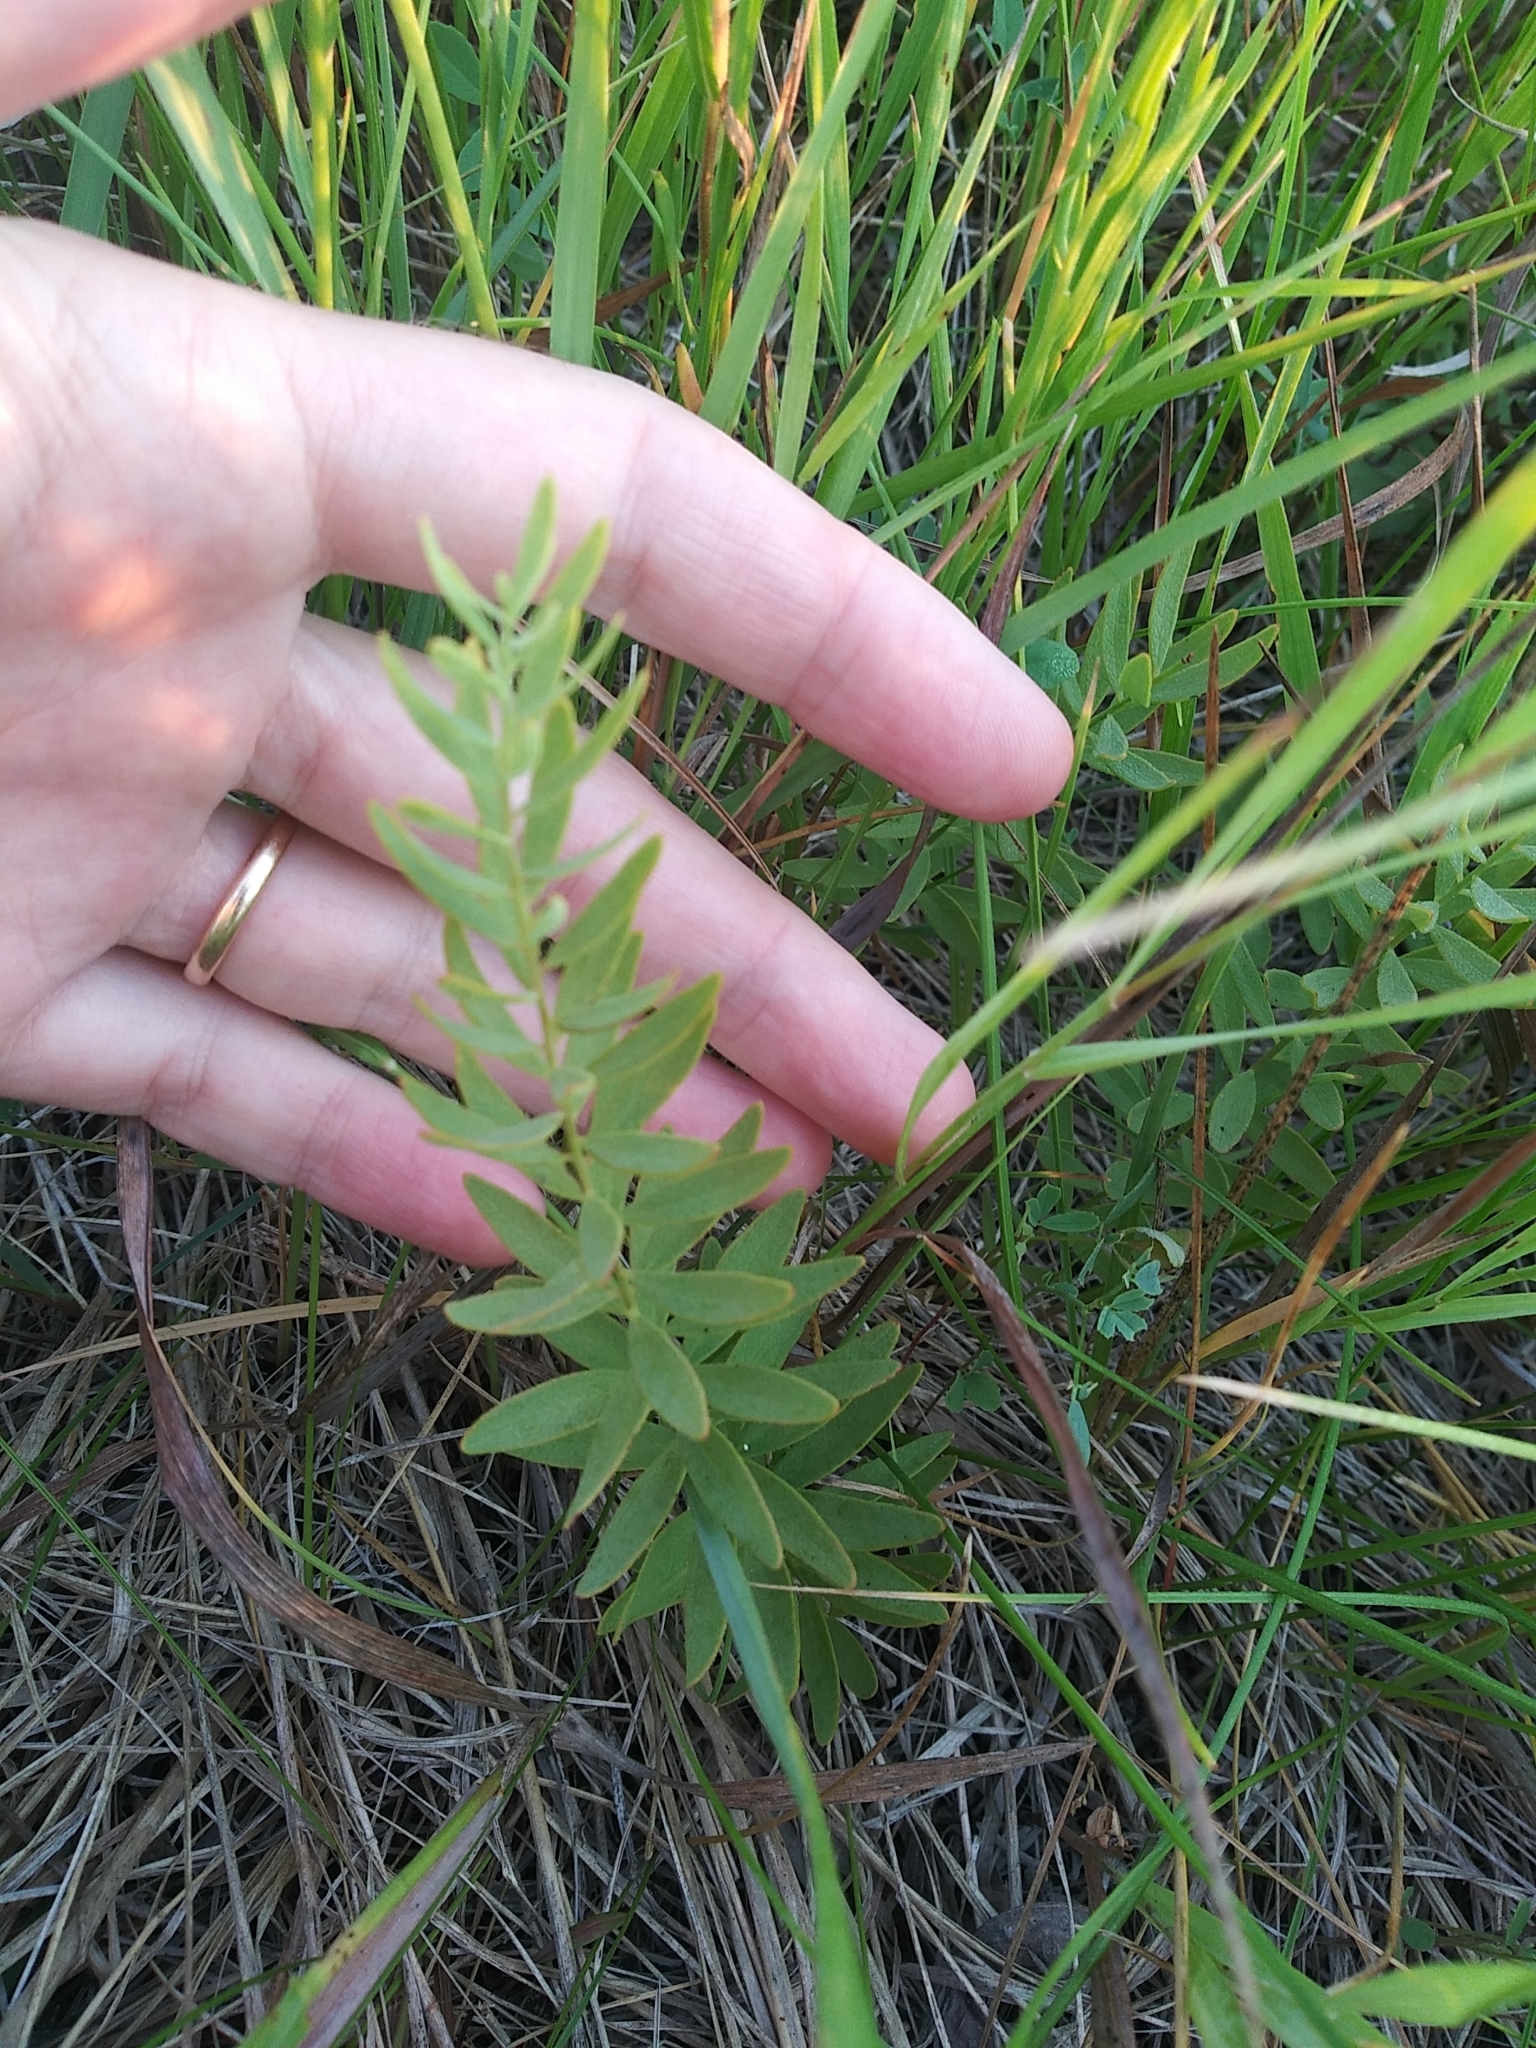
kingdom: Plantae
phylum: Tracheophyta
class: Magnoliopsida
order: Santalales
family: Comandraceae
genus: Comandra
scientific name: Comandra umbellata
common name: Bastard toadflax
